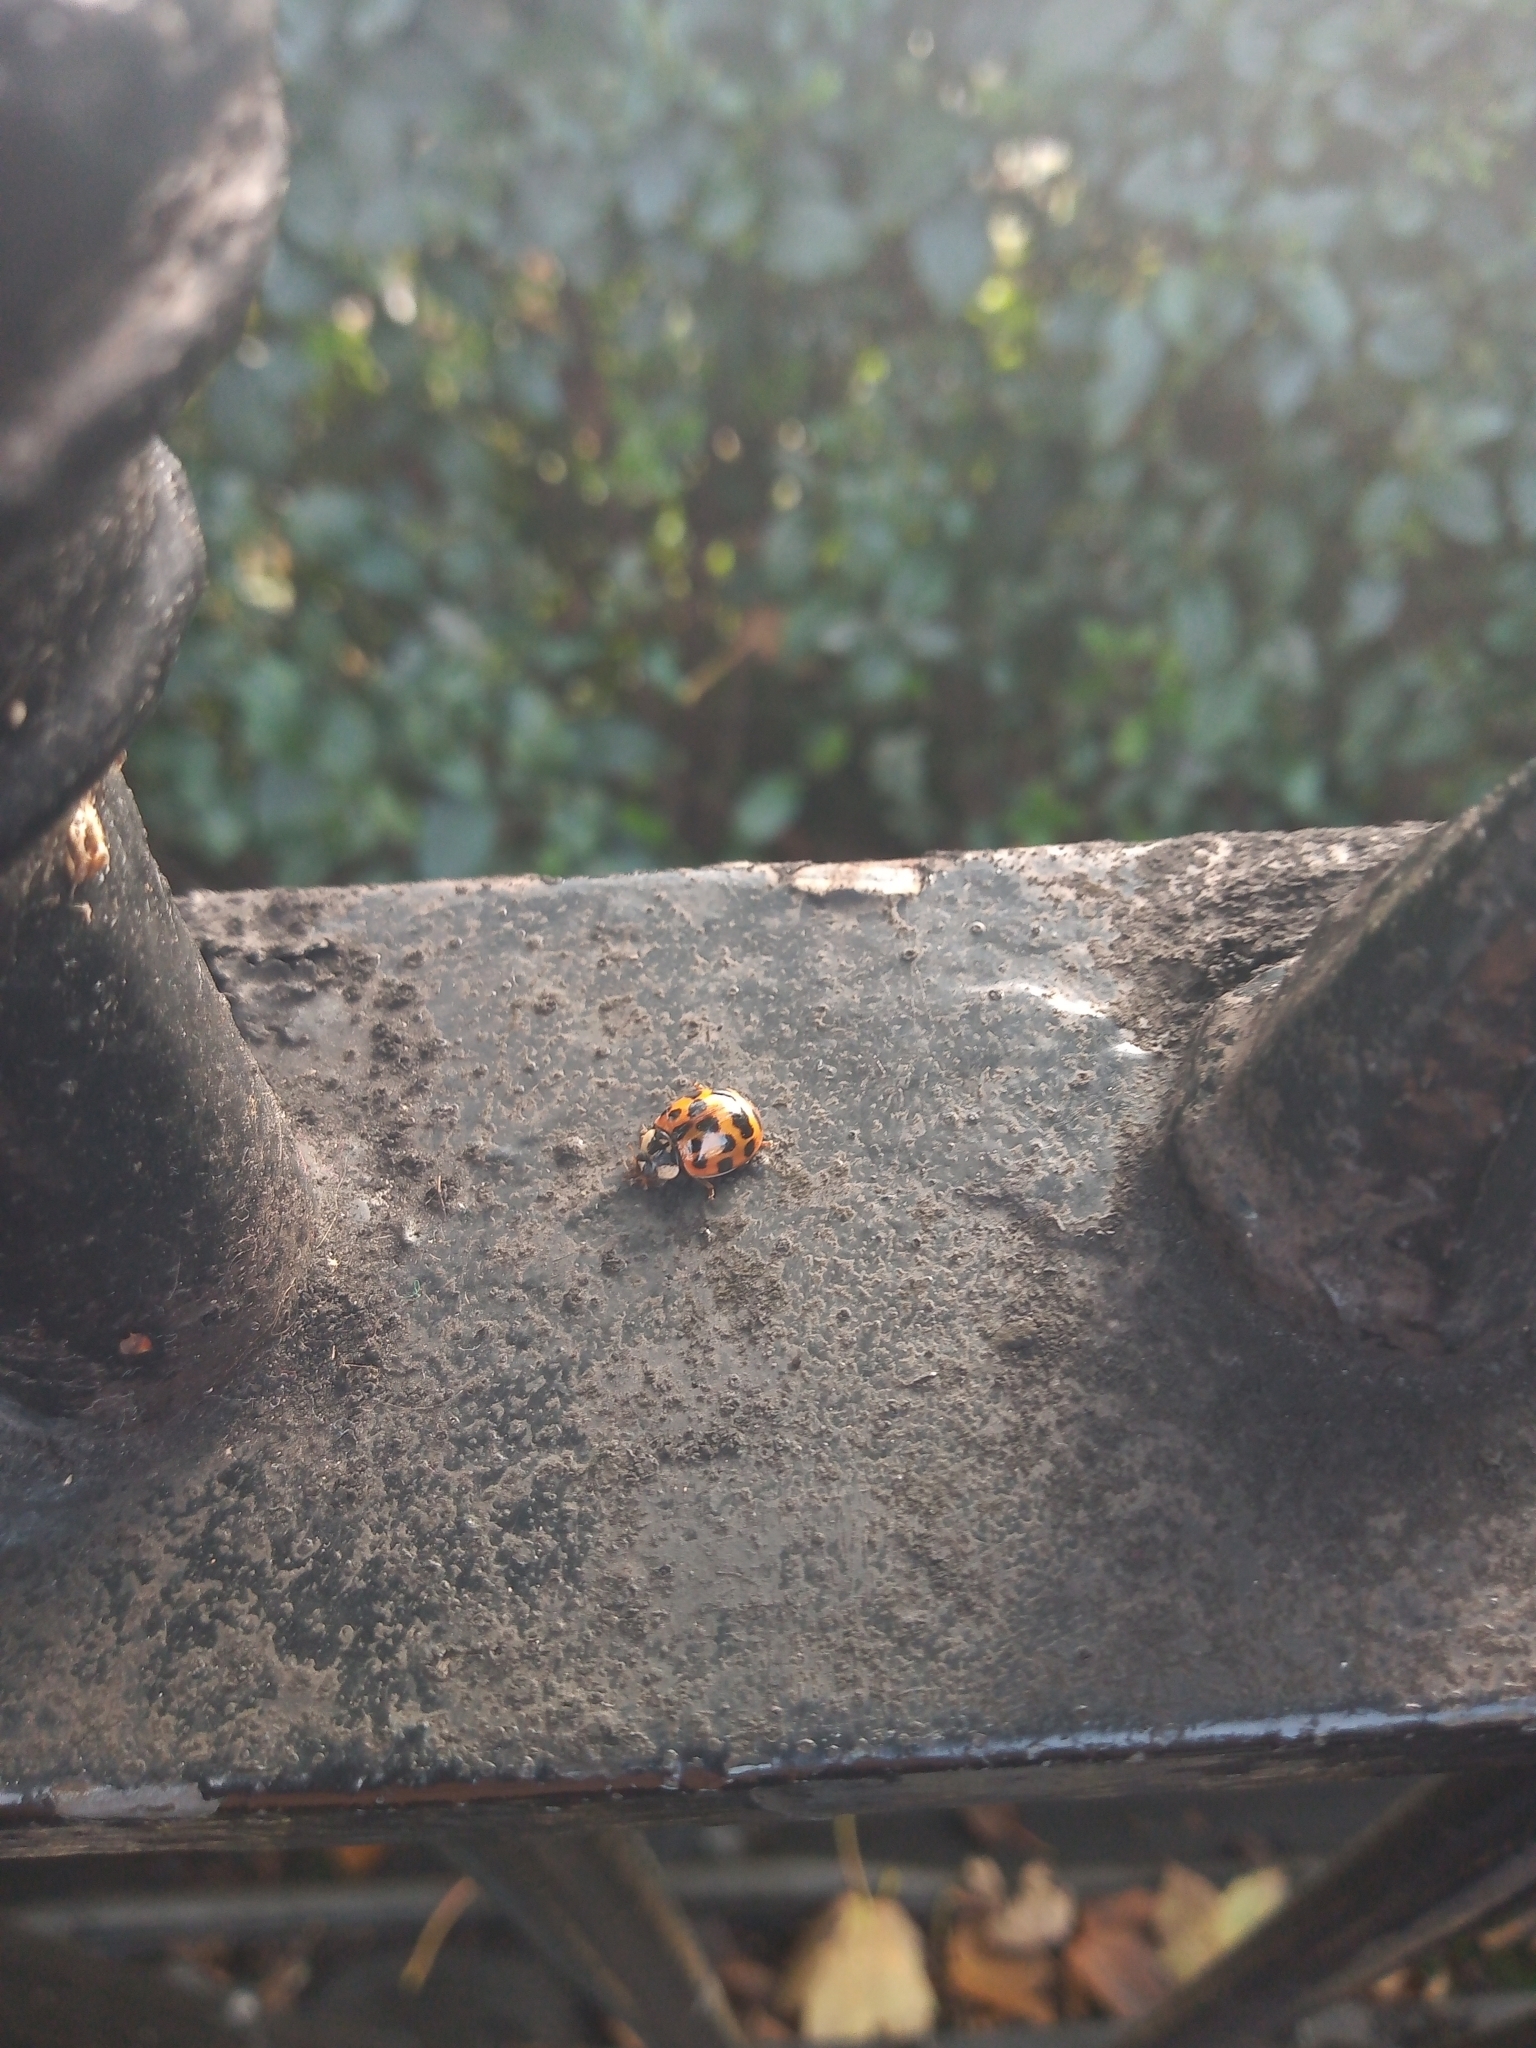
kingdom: Animalia
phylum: Arthropoda
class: Insecta
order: Coleoptera
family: Coccinellidae
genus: Harmonia
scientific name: Harmonia axyridis
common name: Harlequin ladybird
